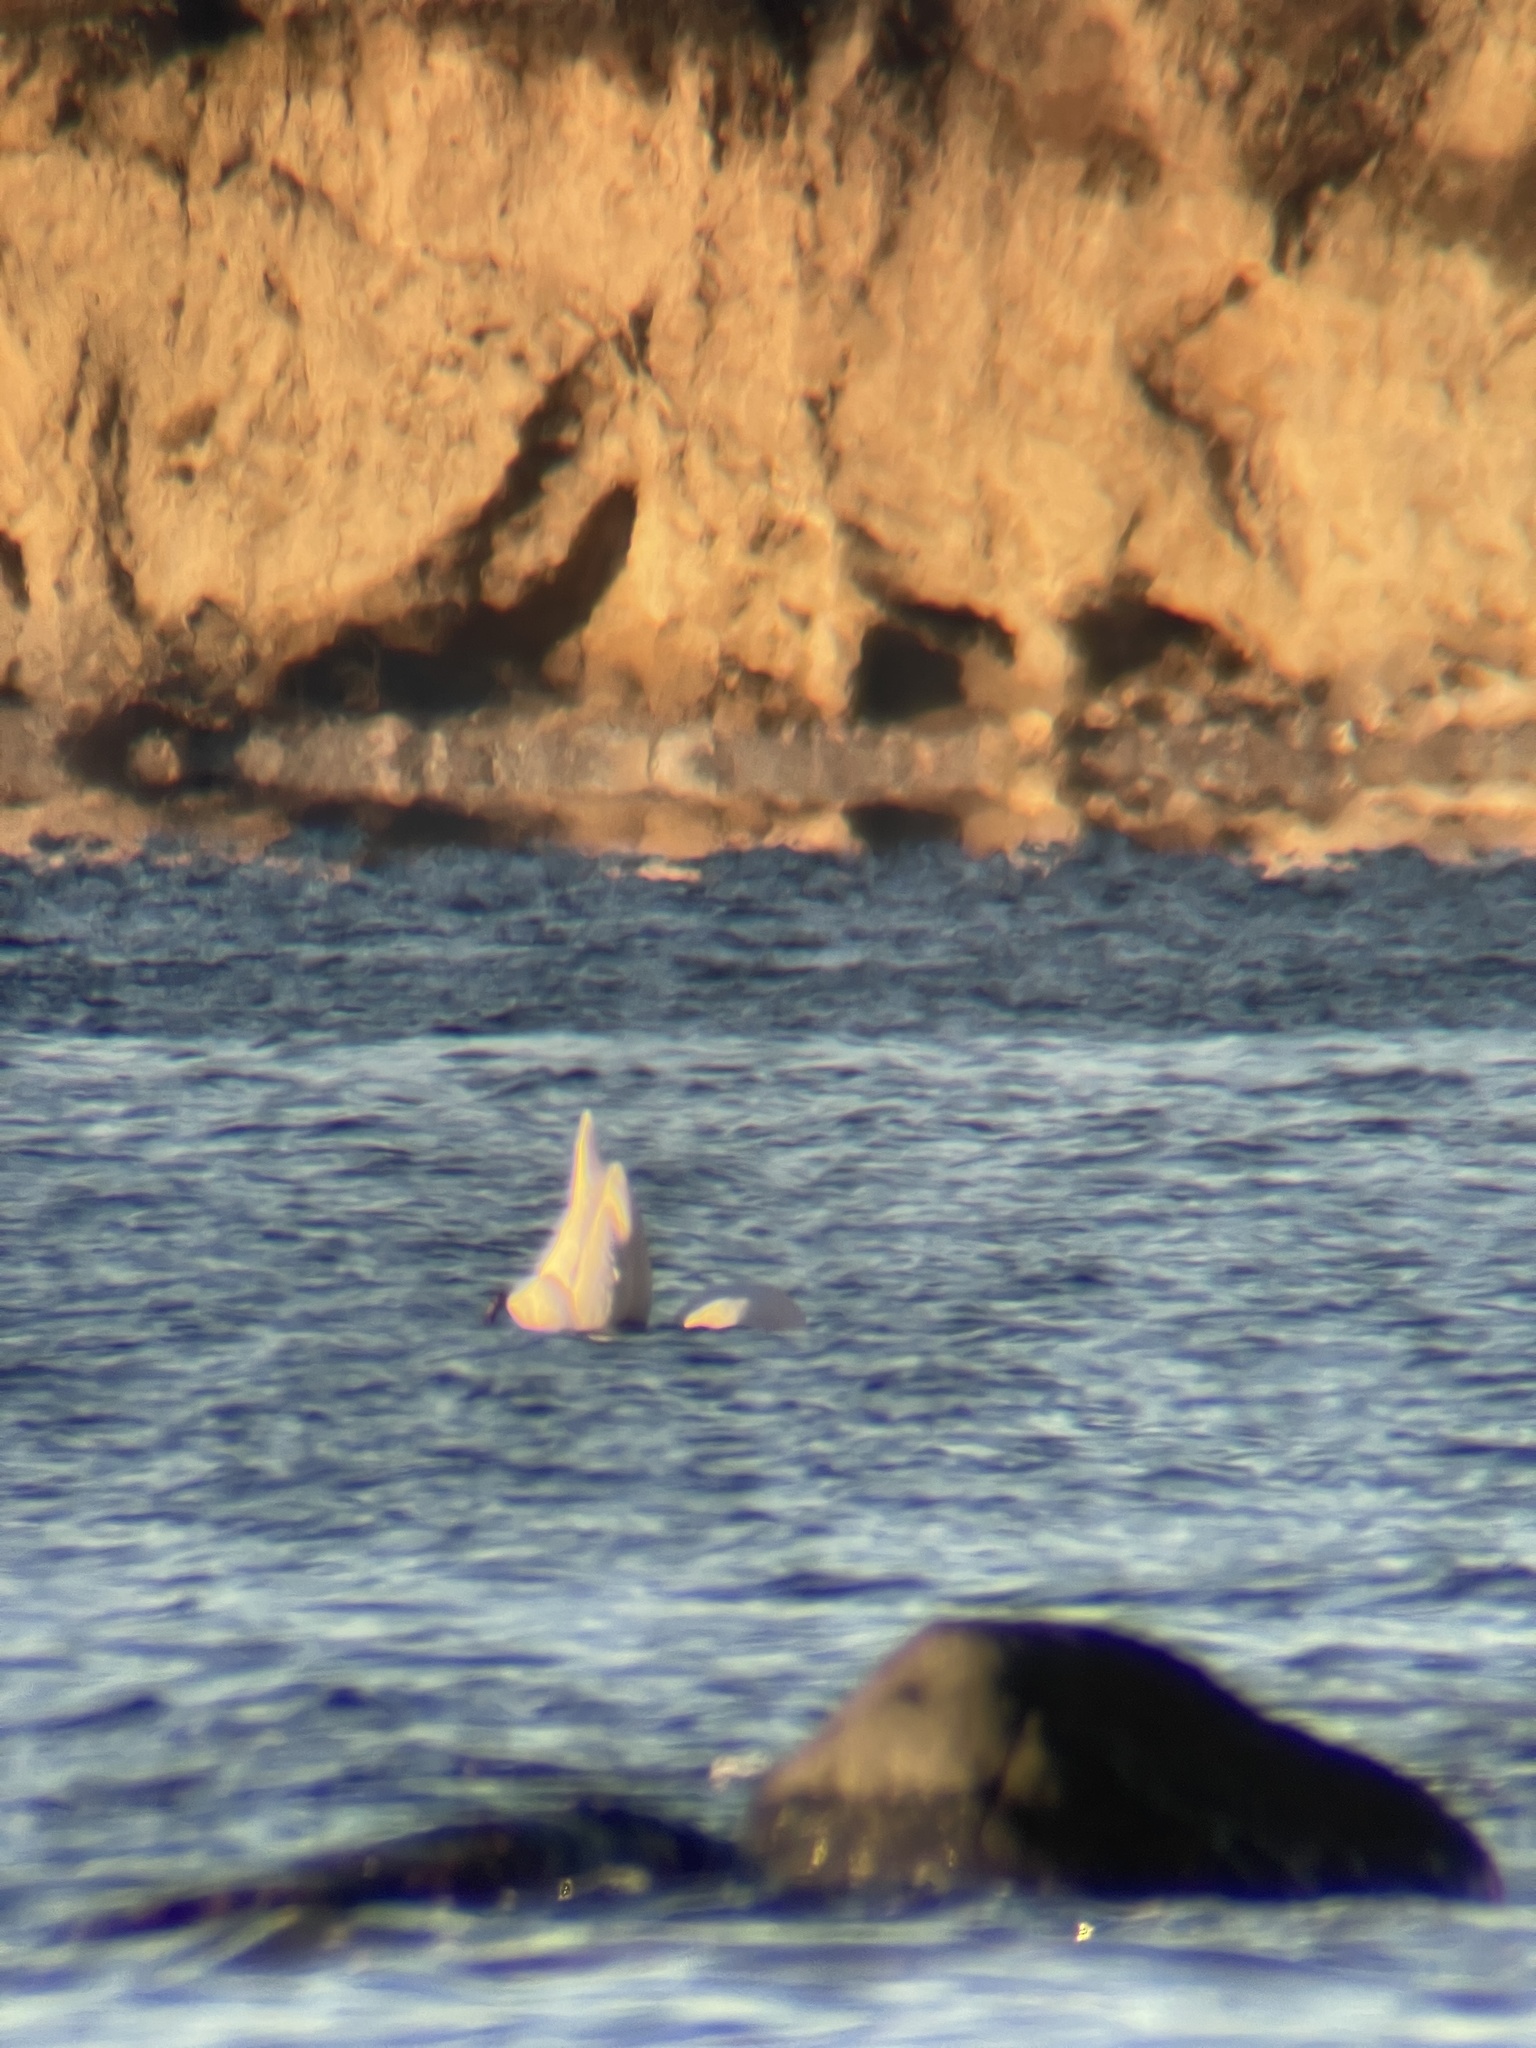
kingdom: Animalia
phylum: Chordata
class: Aves
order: Anseriformes
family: Anatidae
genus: Cygnus
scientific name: Cygnus olor
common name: Mute swan
